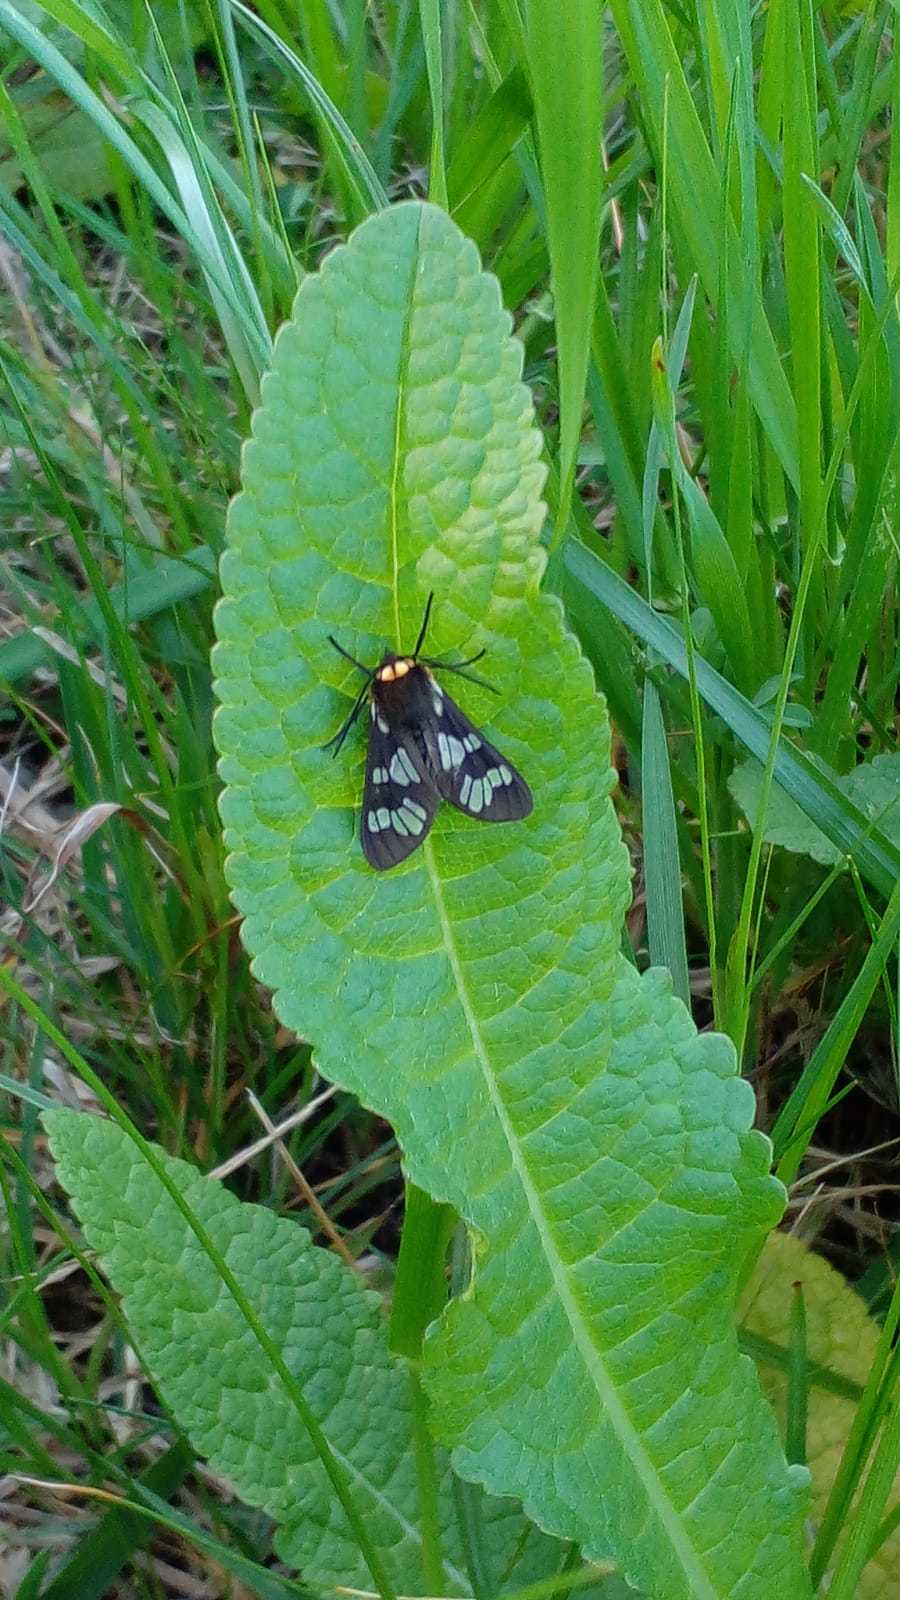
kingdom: Animalia
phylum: Arthropoda
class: Insecta
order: Lepidoptera
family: Erebidae
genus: Eurata
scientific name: Eurata
